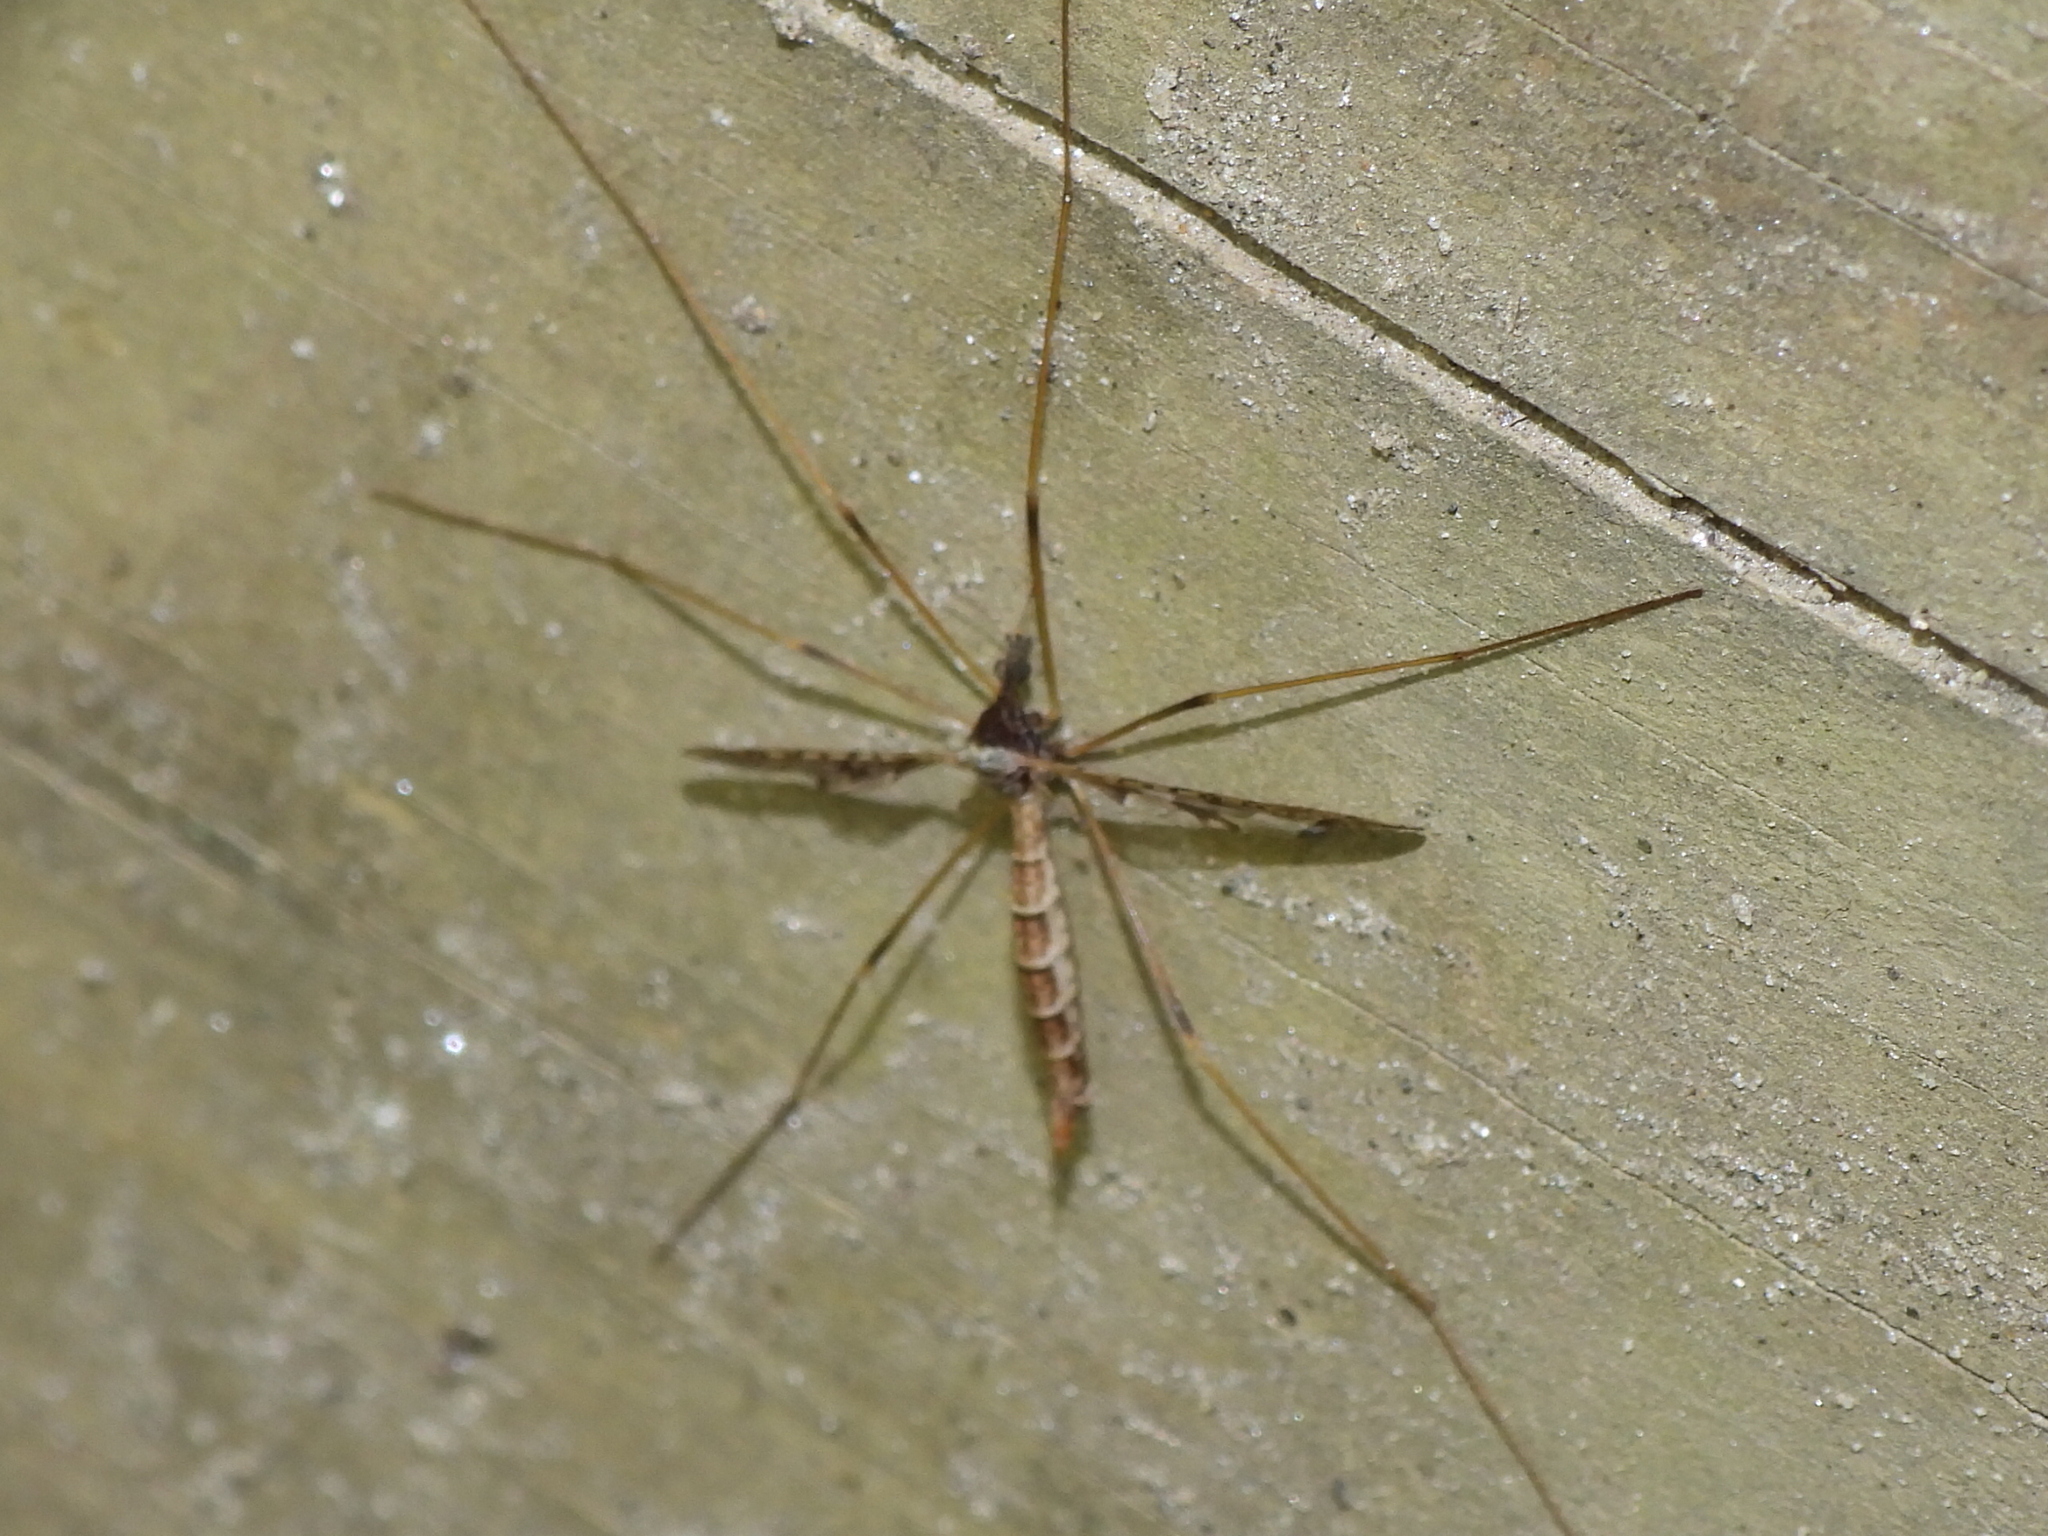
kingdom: Animalia
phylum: Arthropoda
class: Insecta
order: Diptera
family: Limoniidae
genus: Epiphragma
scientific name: Epiphragma solatrix
